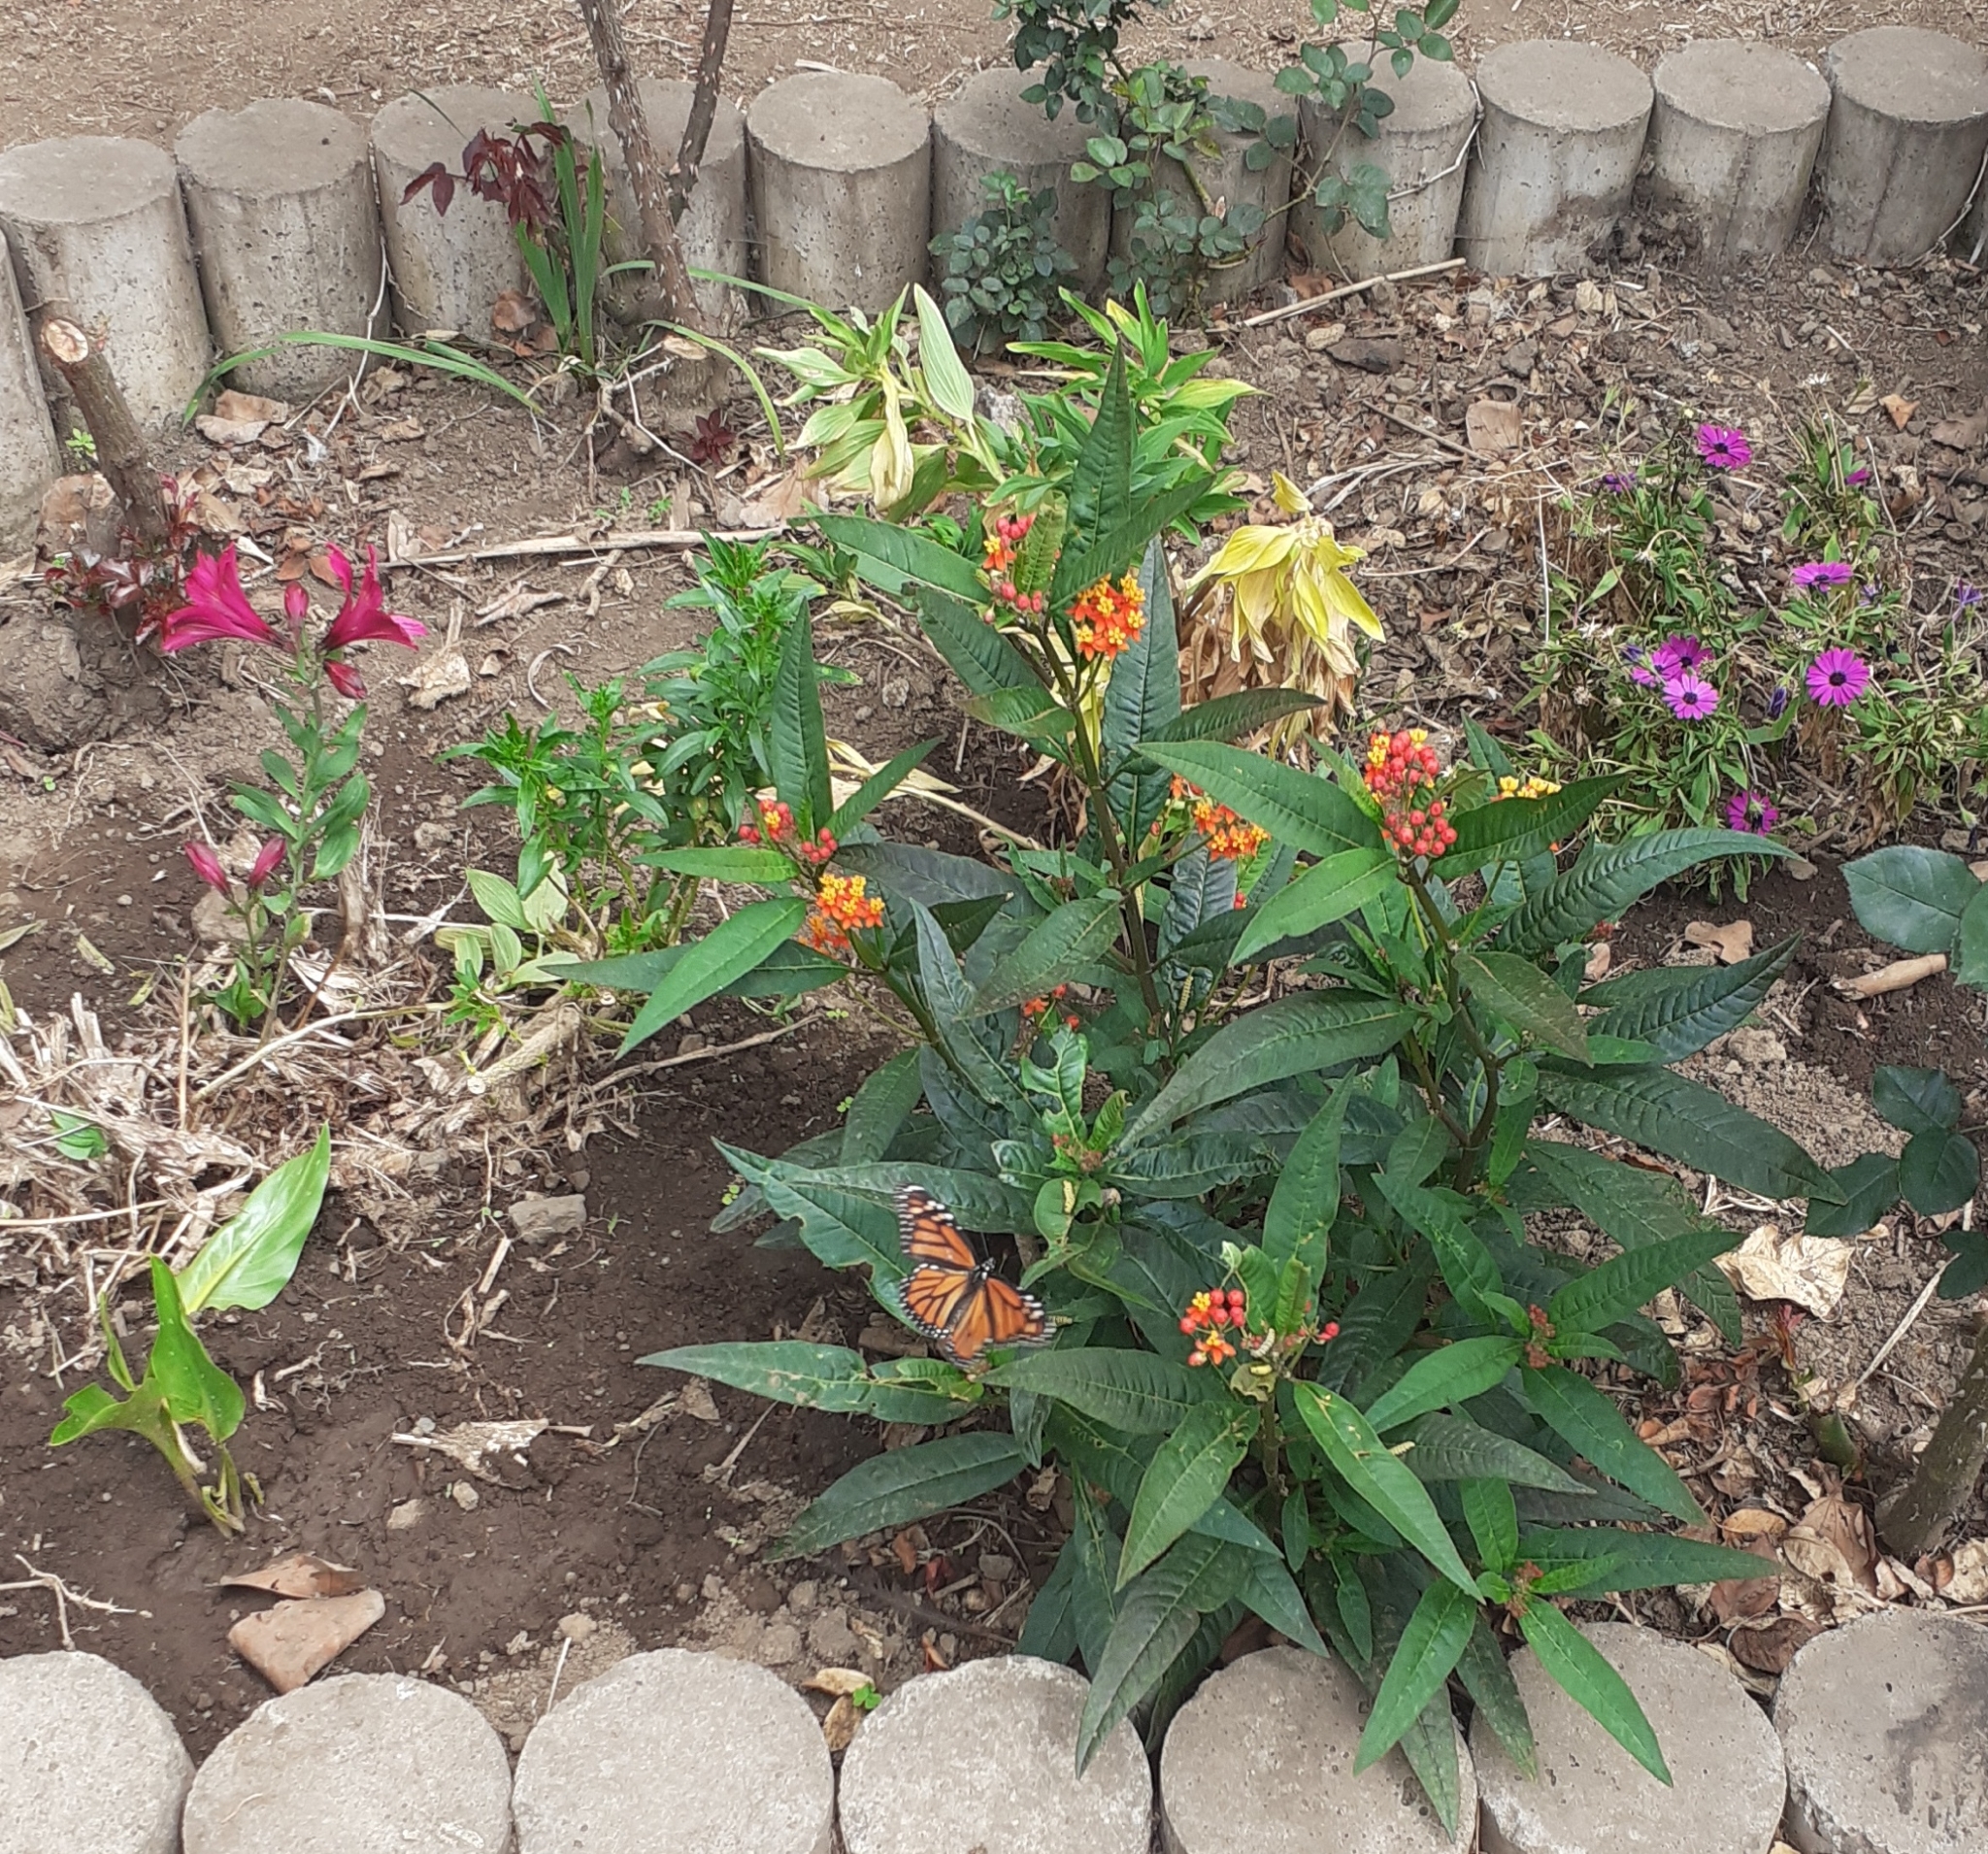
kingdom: Animalia
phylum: Arthropoda
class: Insecta
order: Lepidoptera
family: Nymphalidae
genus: Danaus
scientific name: Danaus plexippus
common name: Monarch
